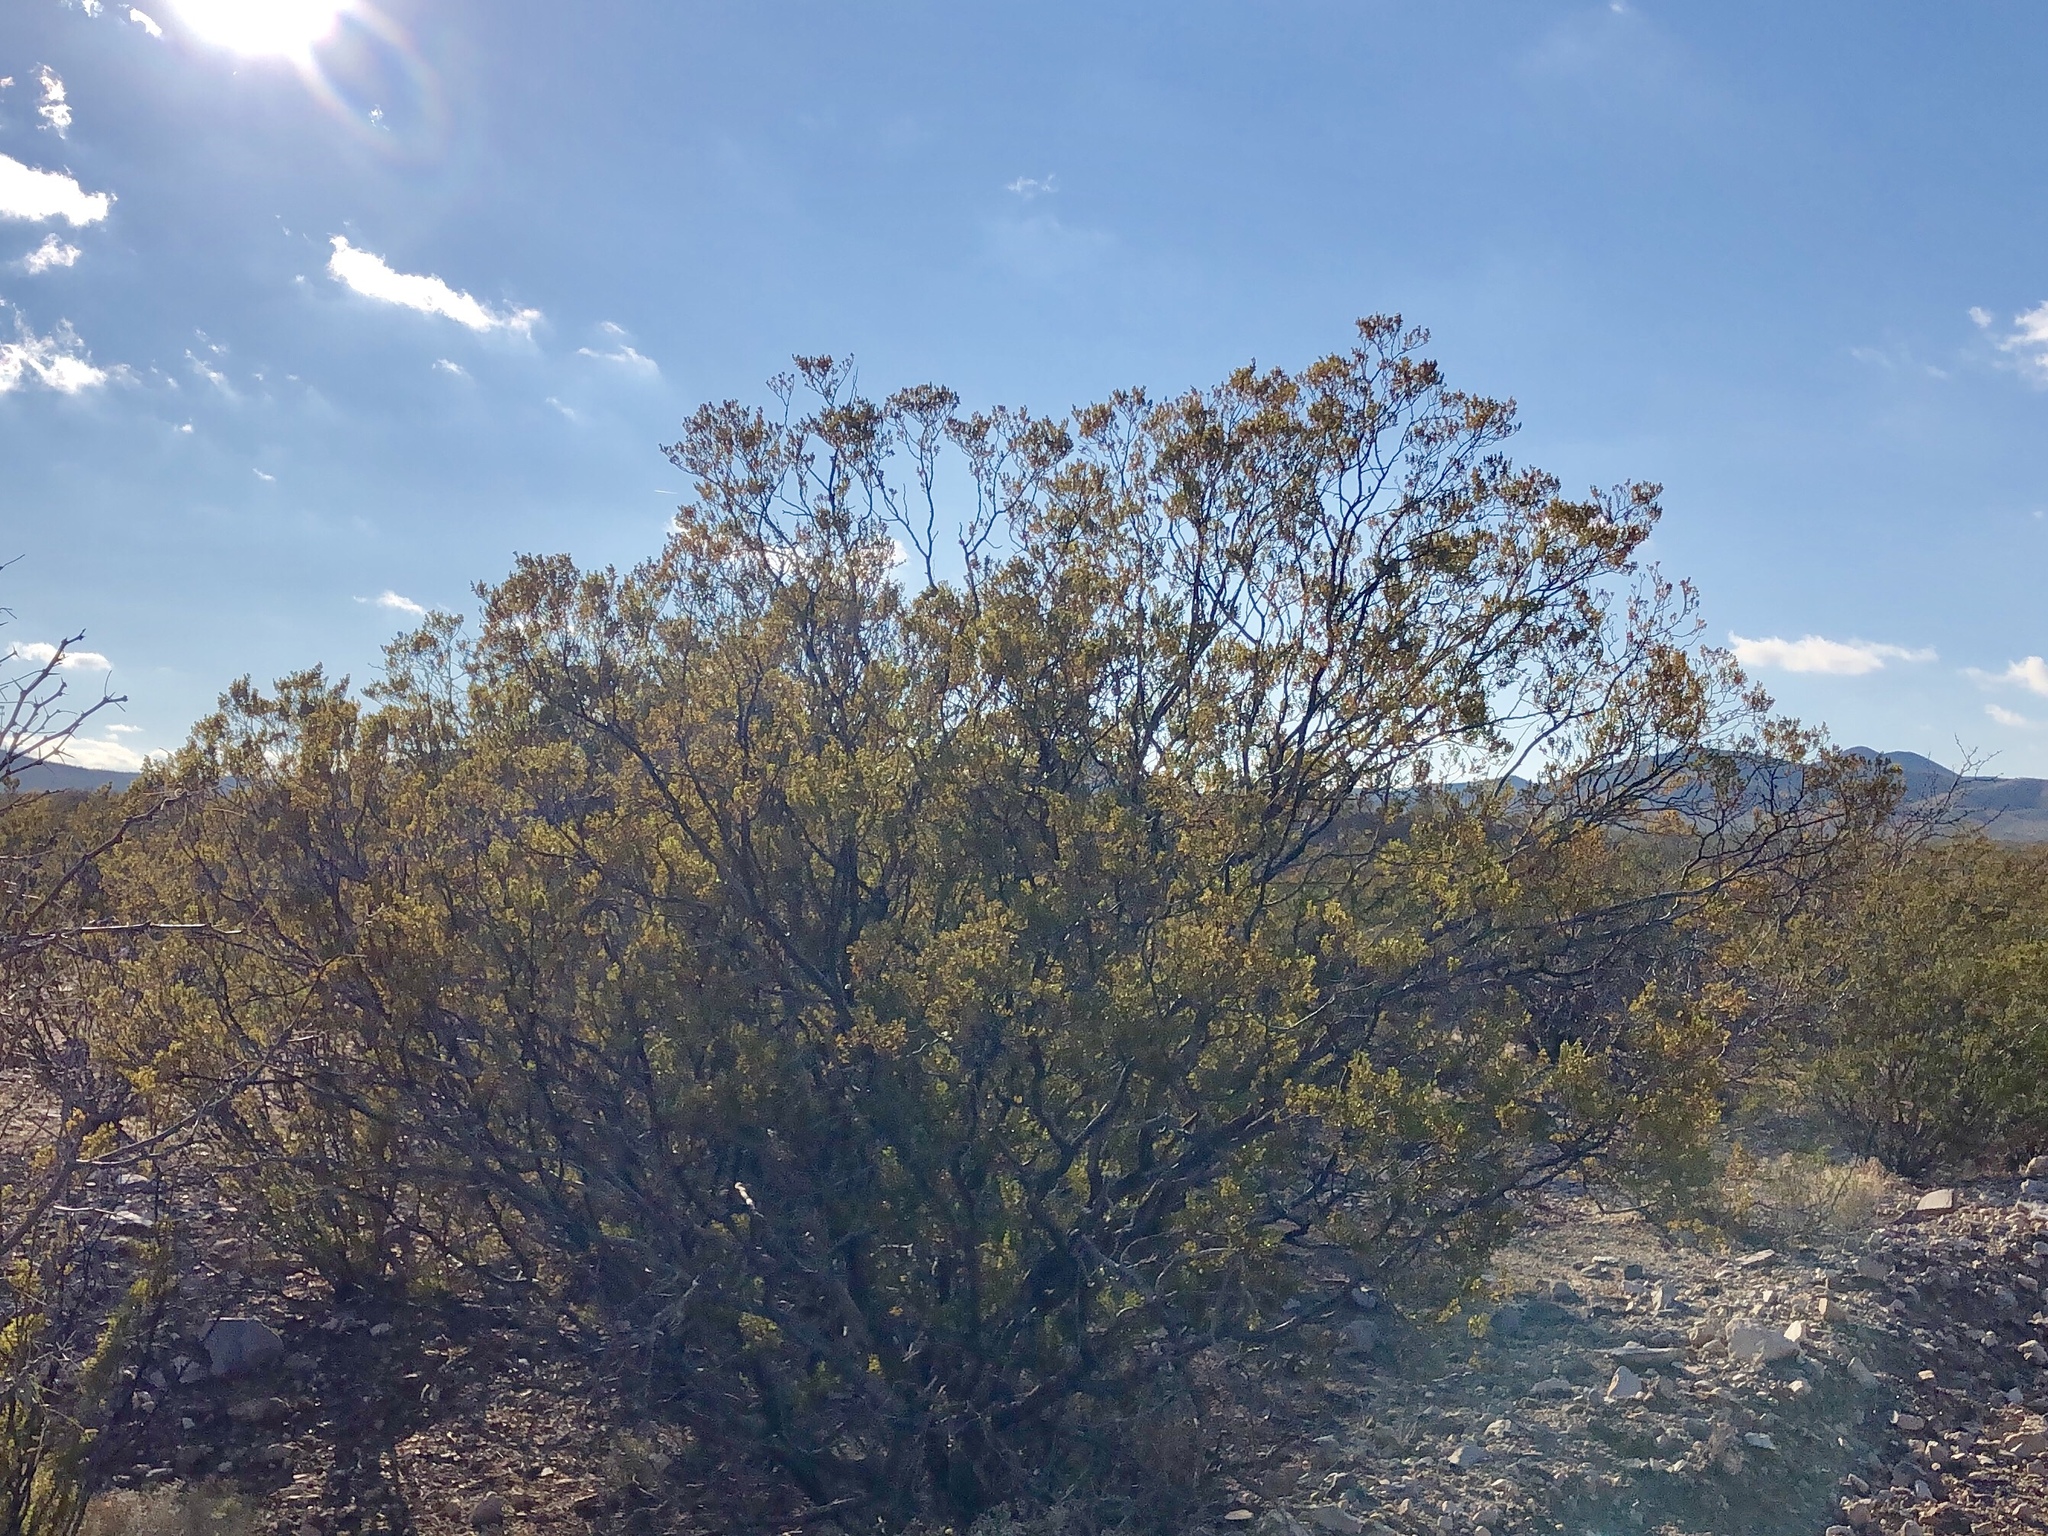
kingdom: Plantae
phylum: Tracheophyta
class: Magnoliopsida
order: Zygophyllales
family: Zygophyllaceae
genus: Larrea
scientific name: Larrea tridentata
